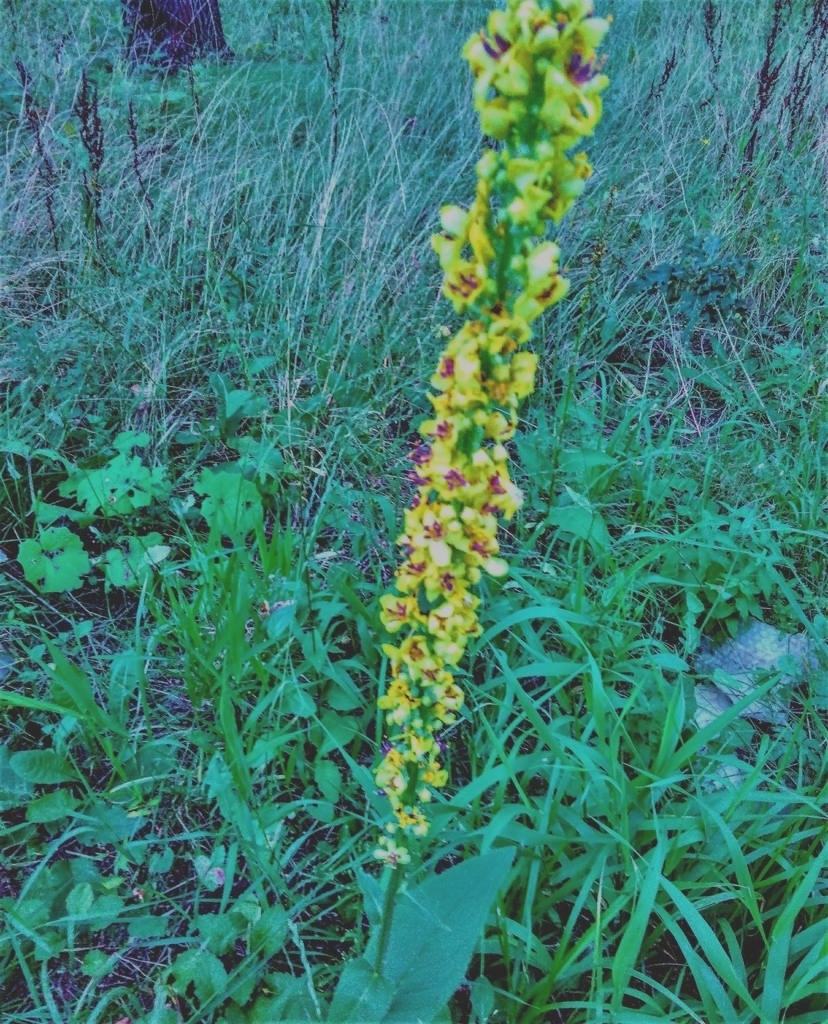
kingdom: Plantae
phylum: Tracheophyta
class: Magnoliopsida
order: Lamiales
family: Scrophulariaceae
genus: Verbascum
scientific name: Verbascum nigrum
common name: Dark mullein
